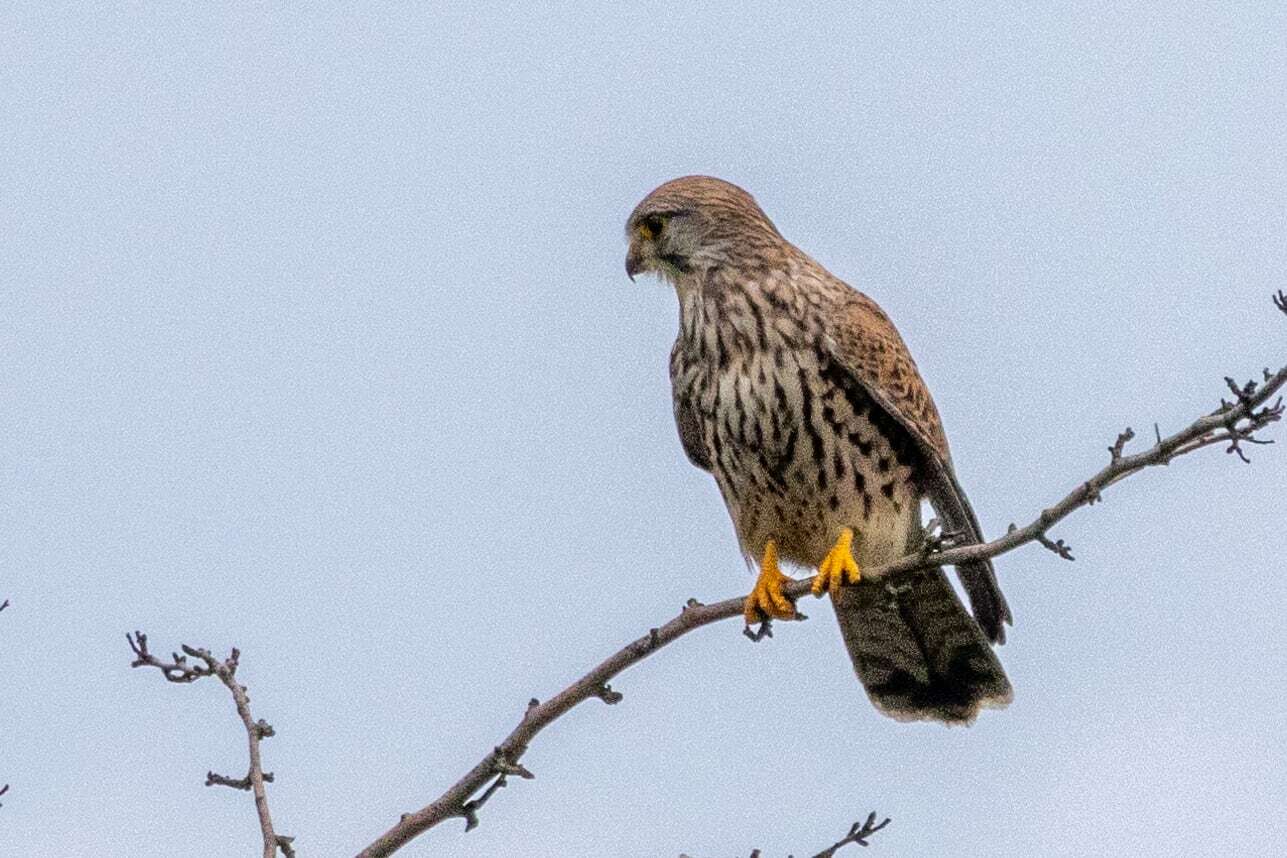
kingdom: Animalia
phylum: Chordata
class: Aves
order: Falconiformes
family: Falconidae
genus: Falco
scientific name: Falco tinnunculus
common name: Common kestrel
